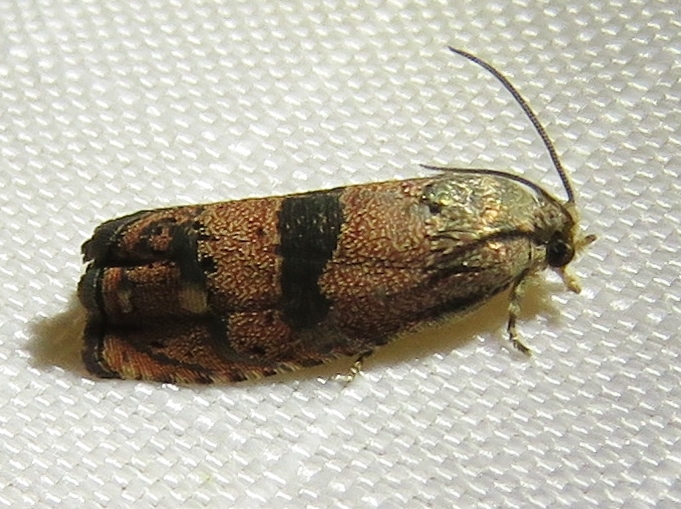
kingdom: Animalia
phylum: Arthropoda
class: Insecta
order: Lepidoptera
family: Tortricidae
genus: Cydia
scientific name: Cydia latiferreana
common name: Filbertworm moth
